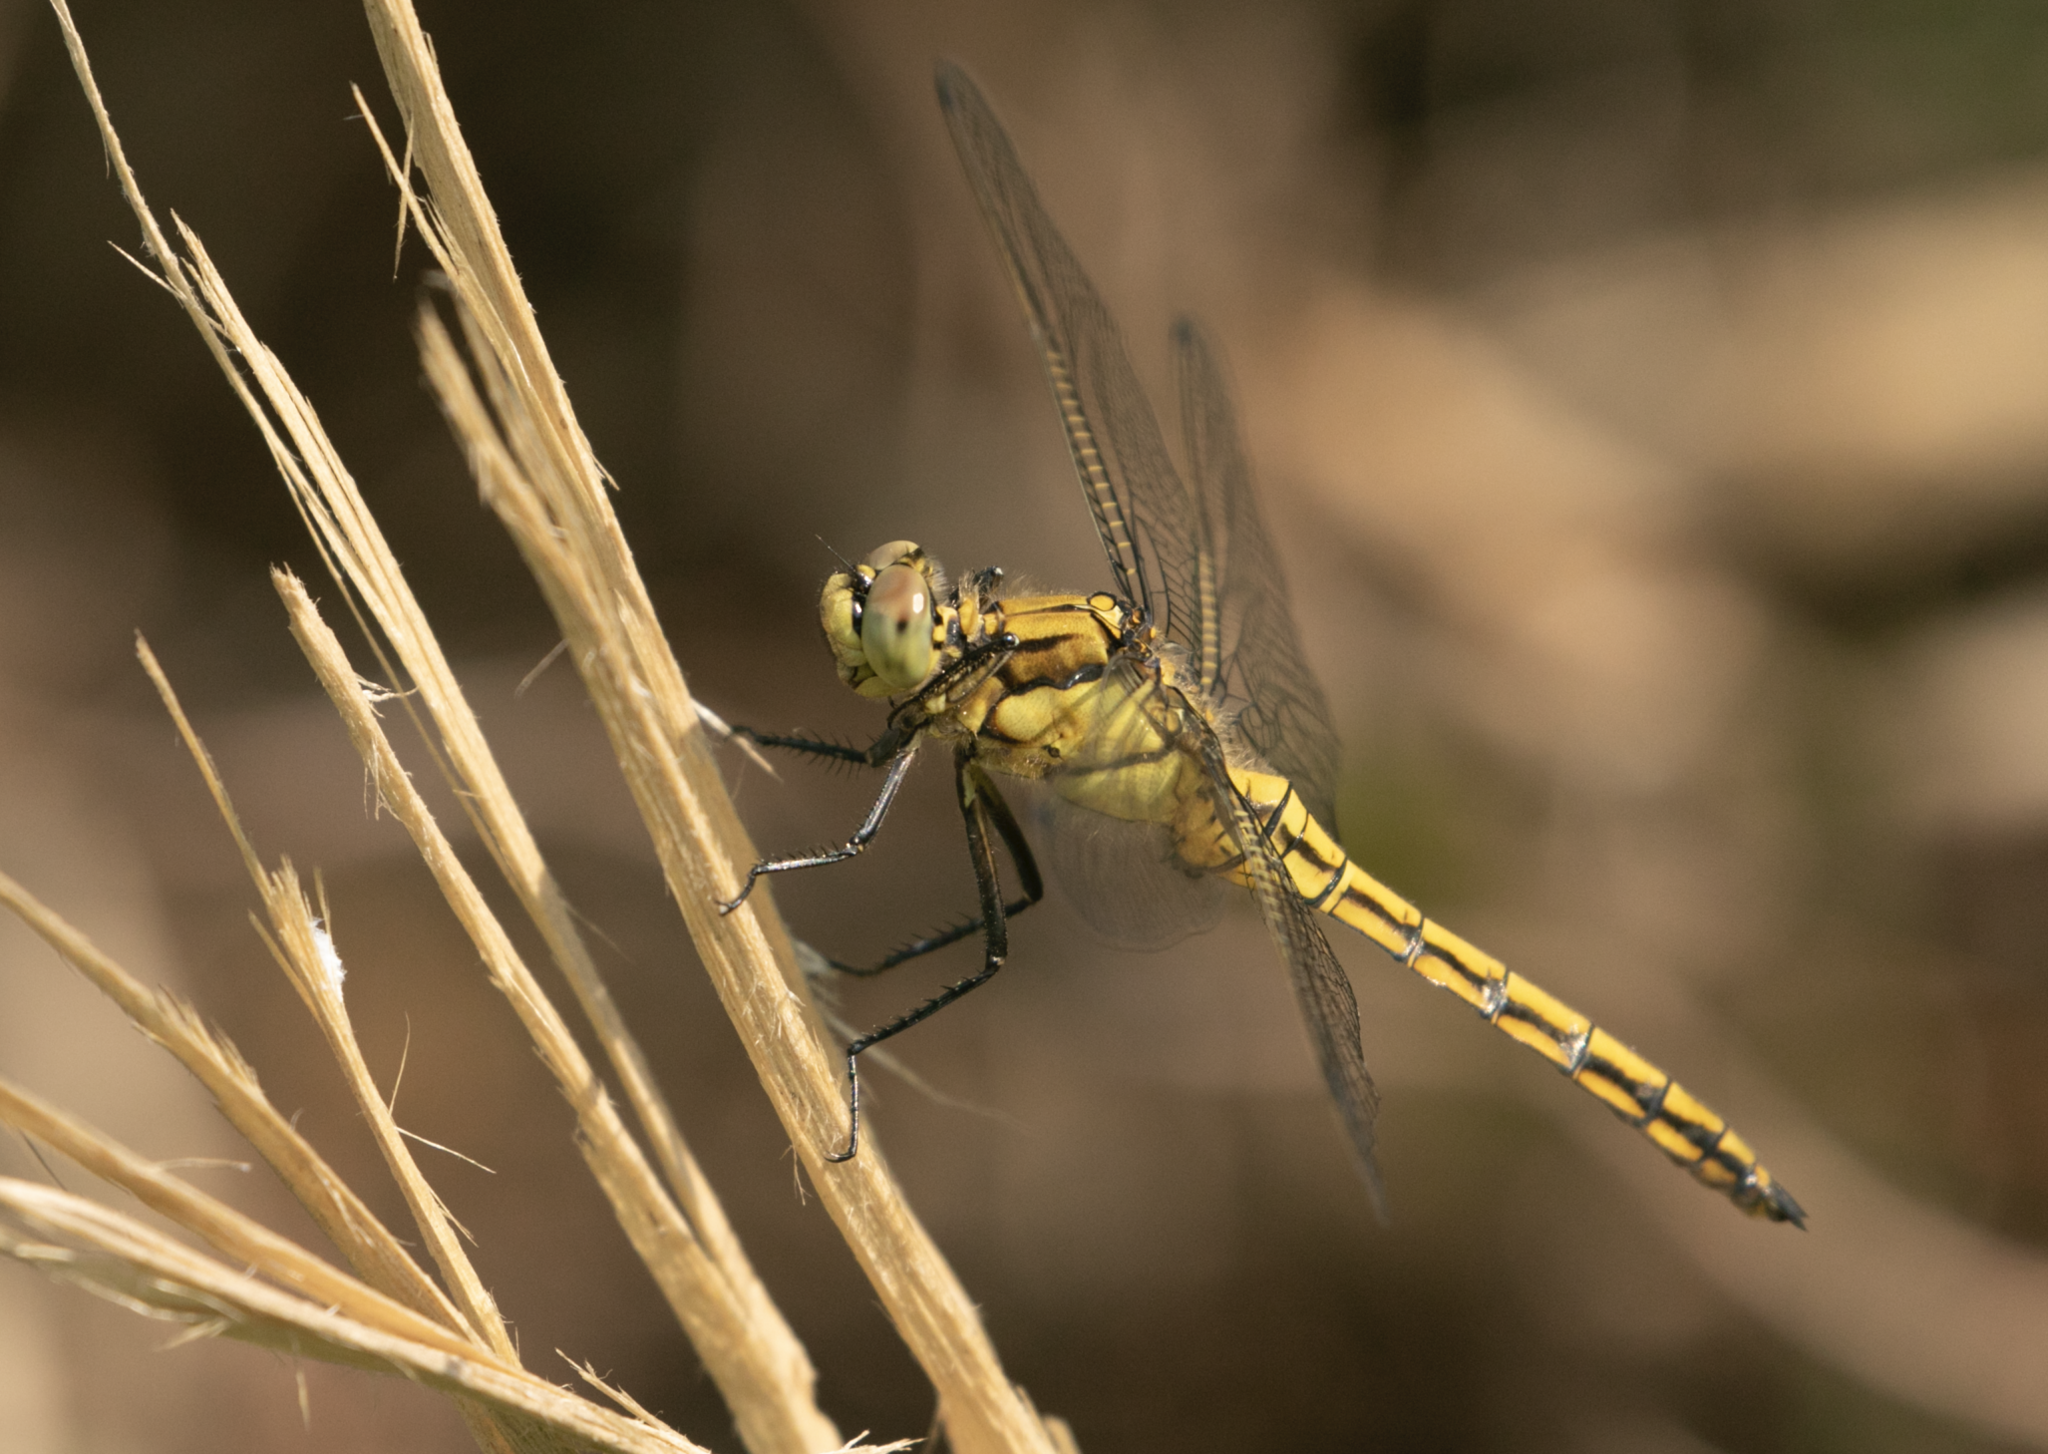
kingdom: Animalia
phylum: Arthropoda
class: Insecta
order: Odonata
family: Libellulidae
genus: Orthetrum
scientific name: Orthetrum cancellatum
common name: Black-tailed skimmer
